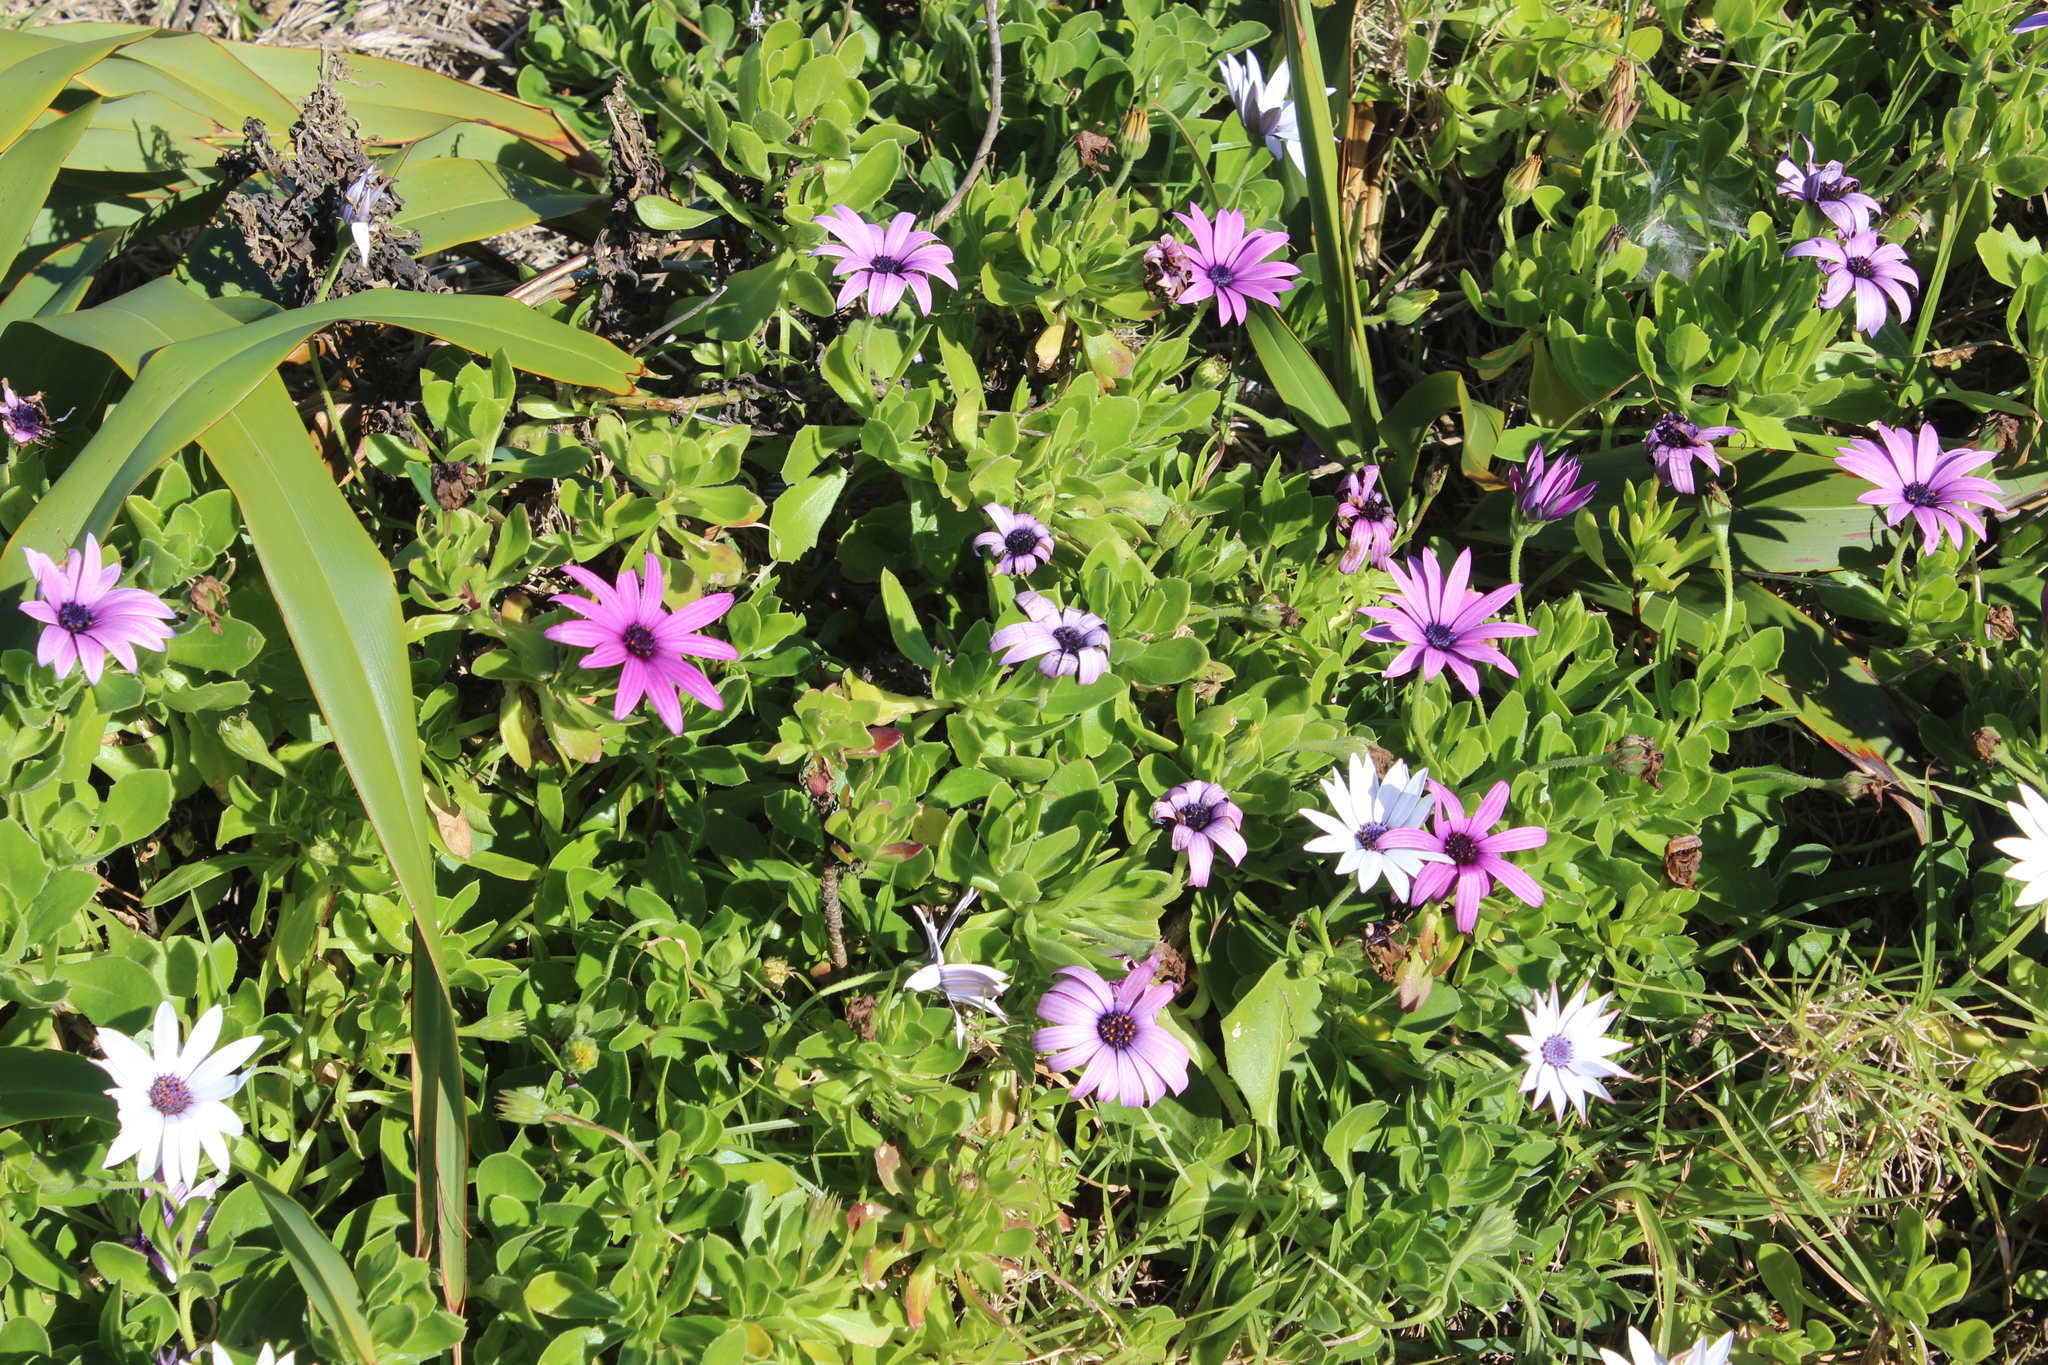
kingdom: Plantae
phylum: Tracheophyta
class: Magnoliopsida
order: Asterales
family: Asteraceae
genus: Dimorphotheca
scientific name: Dimorphotheca fruticosa
